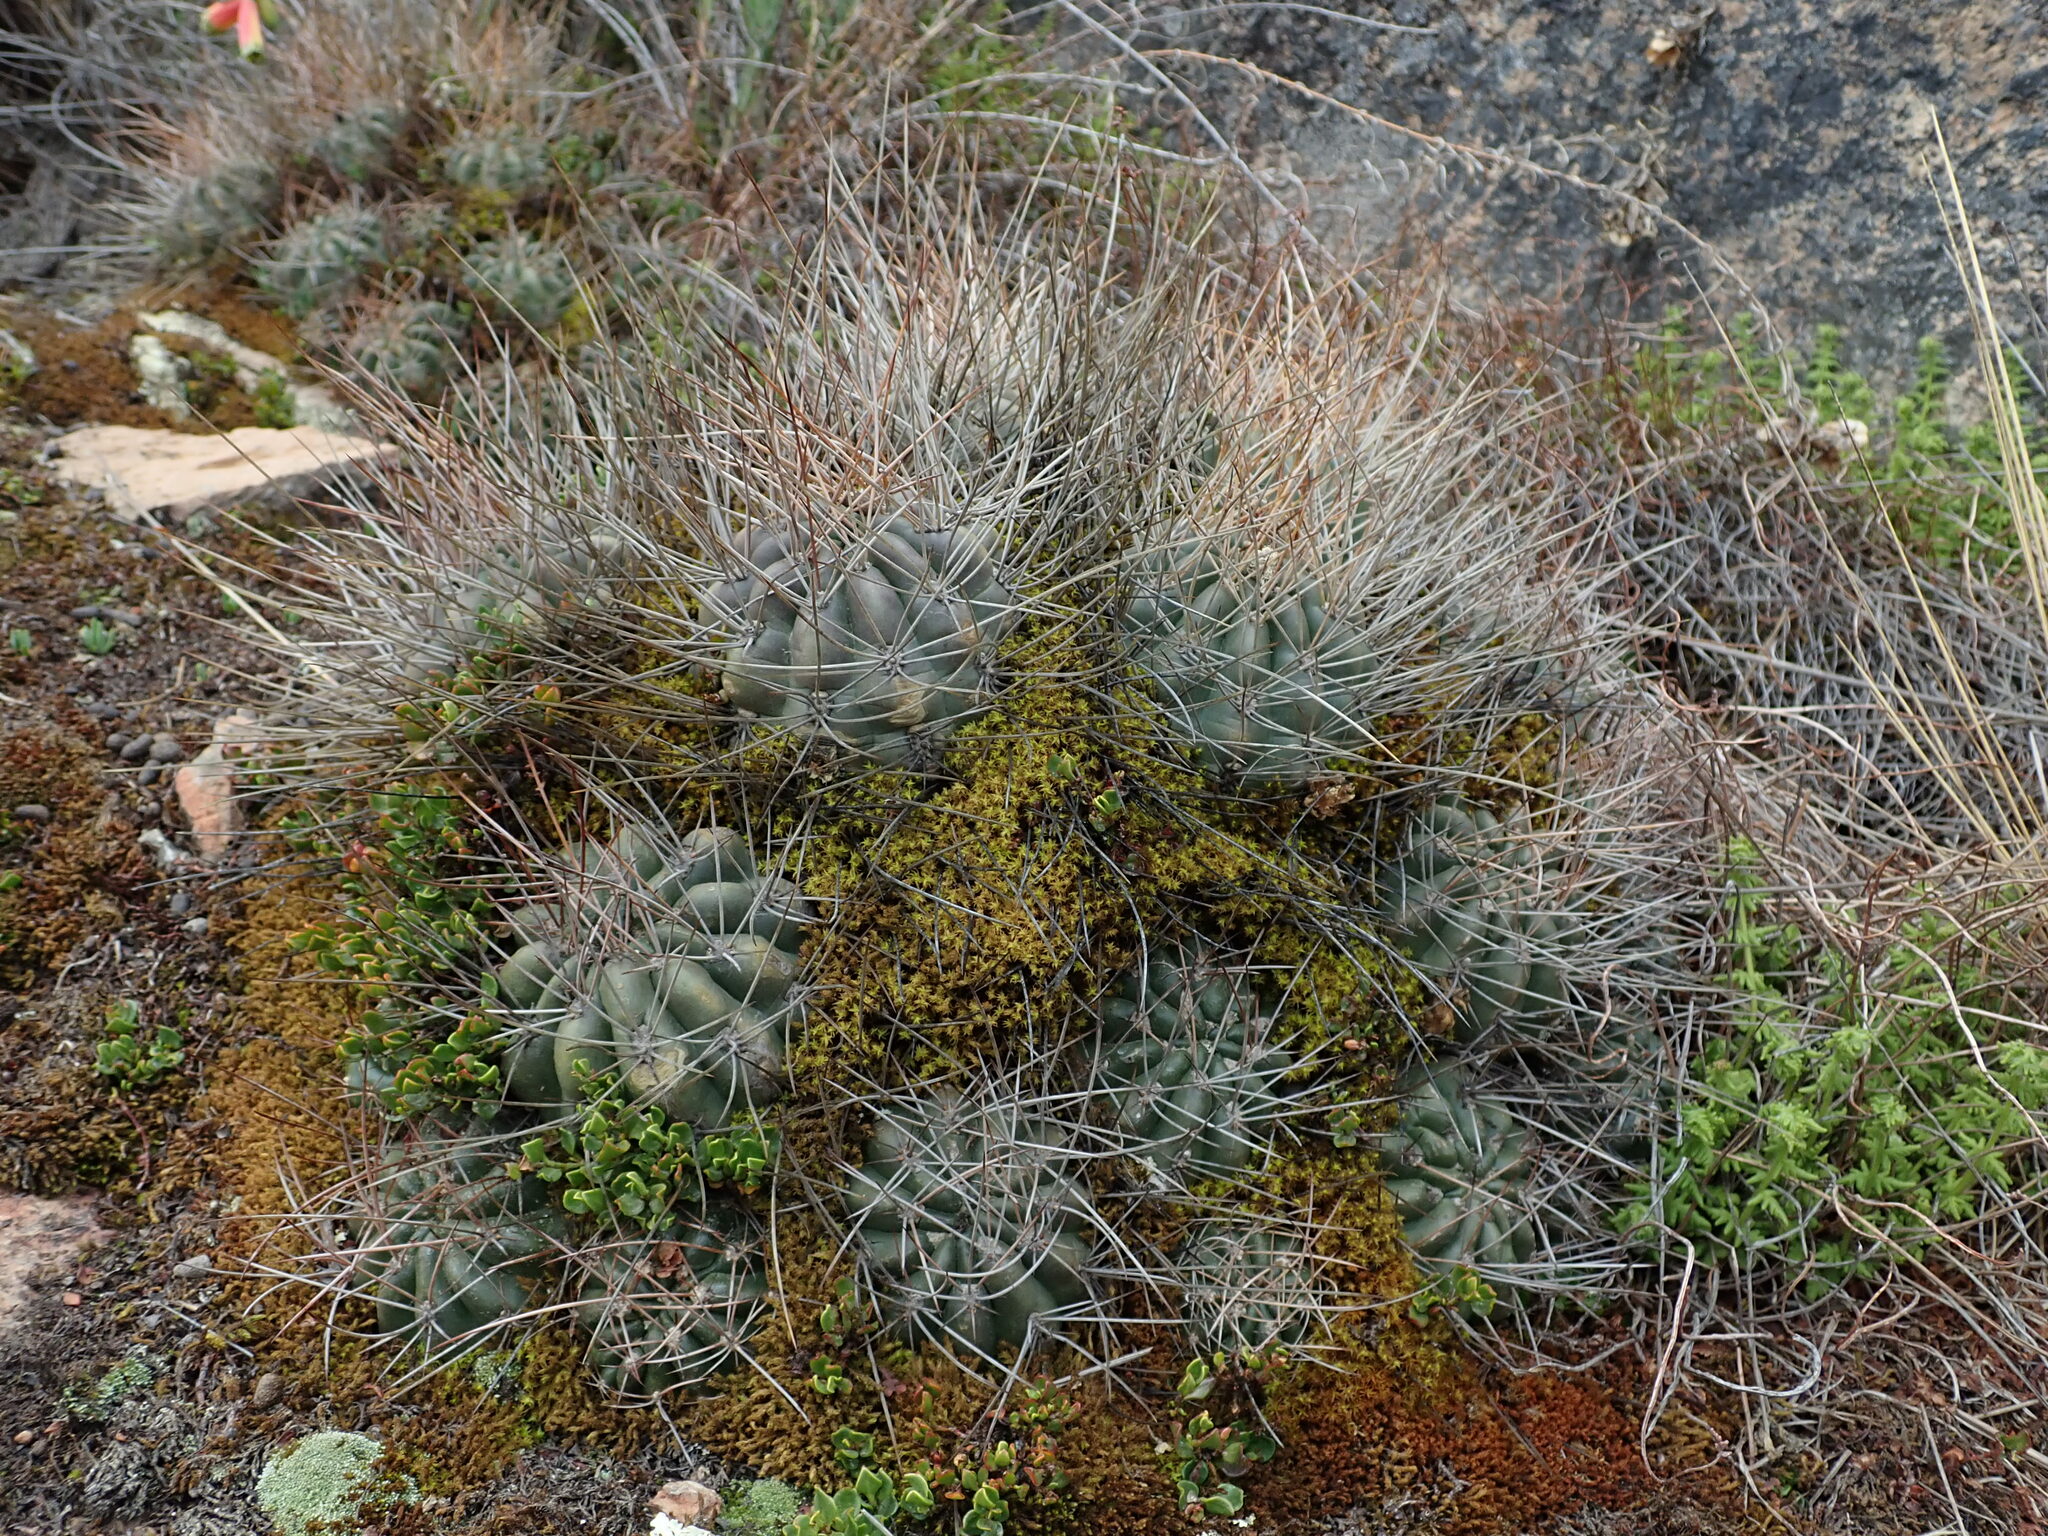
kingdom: Plantae
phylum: Tracheophyta
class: Magnoliopsida
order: Caryophyllales
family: Cactaceae
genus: Lobivia
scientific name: Lobivia maximiliana
